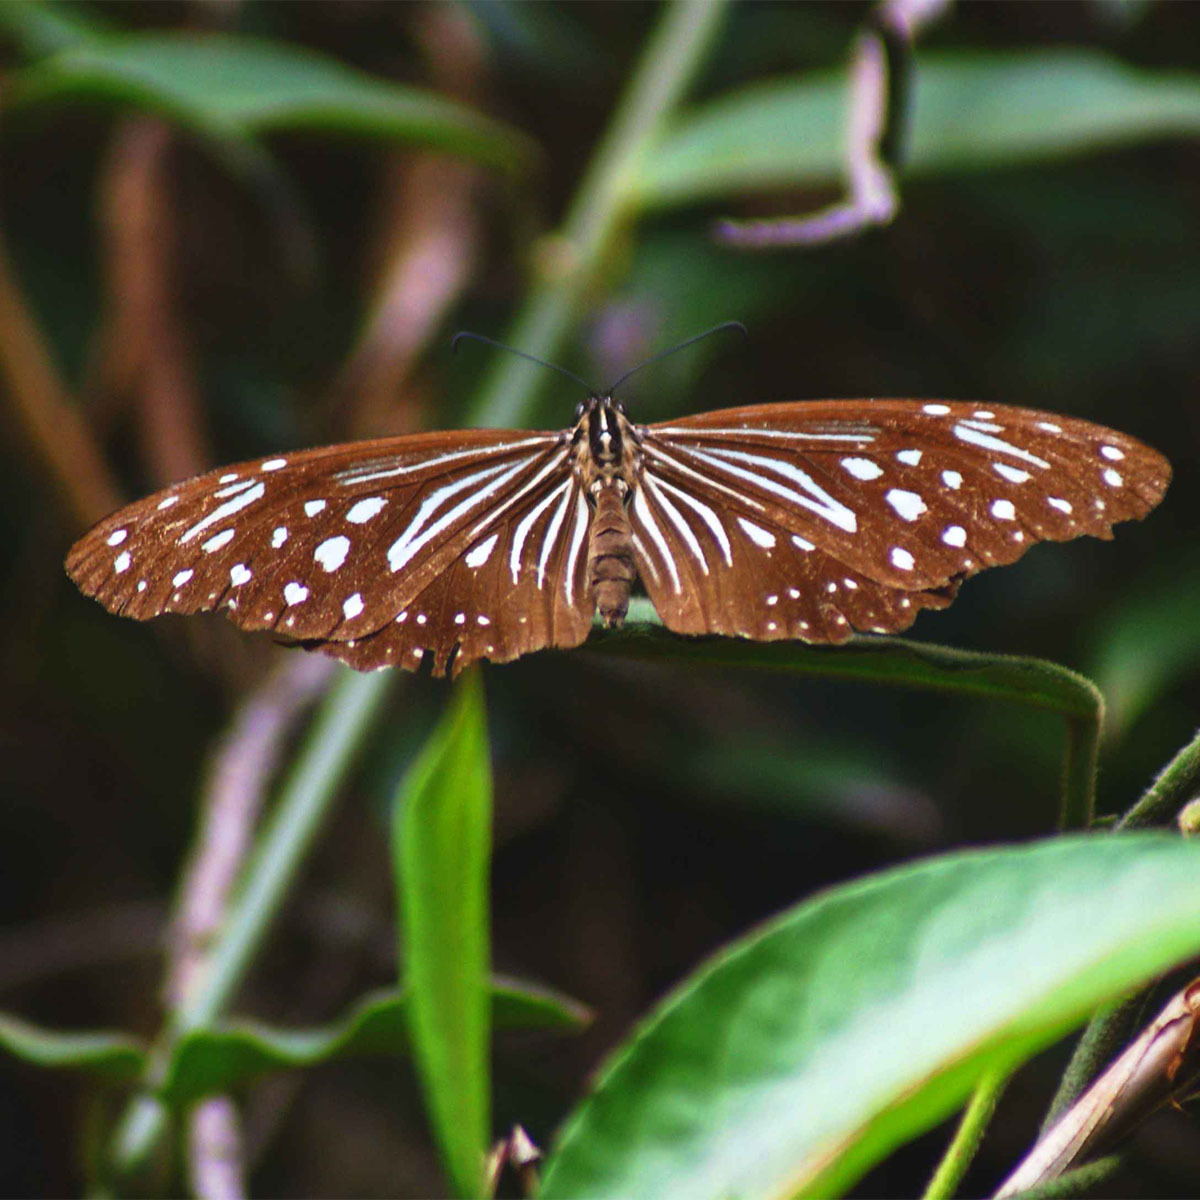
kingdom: Animalia
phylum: Arthropoda
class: Insecta
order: Lepidoptera
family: Nymphalidae
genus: Parantica
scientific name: Parantica nilgiriensis
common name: Nilgiri tiger
